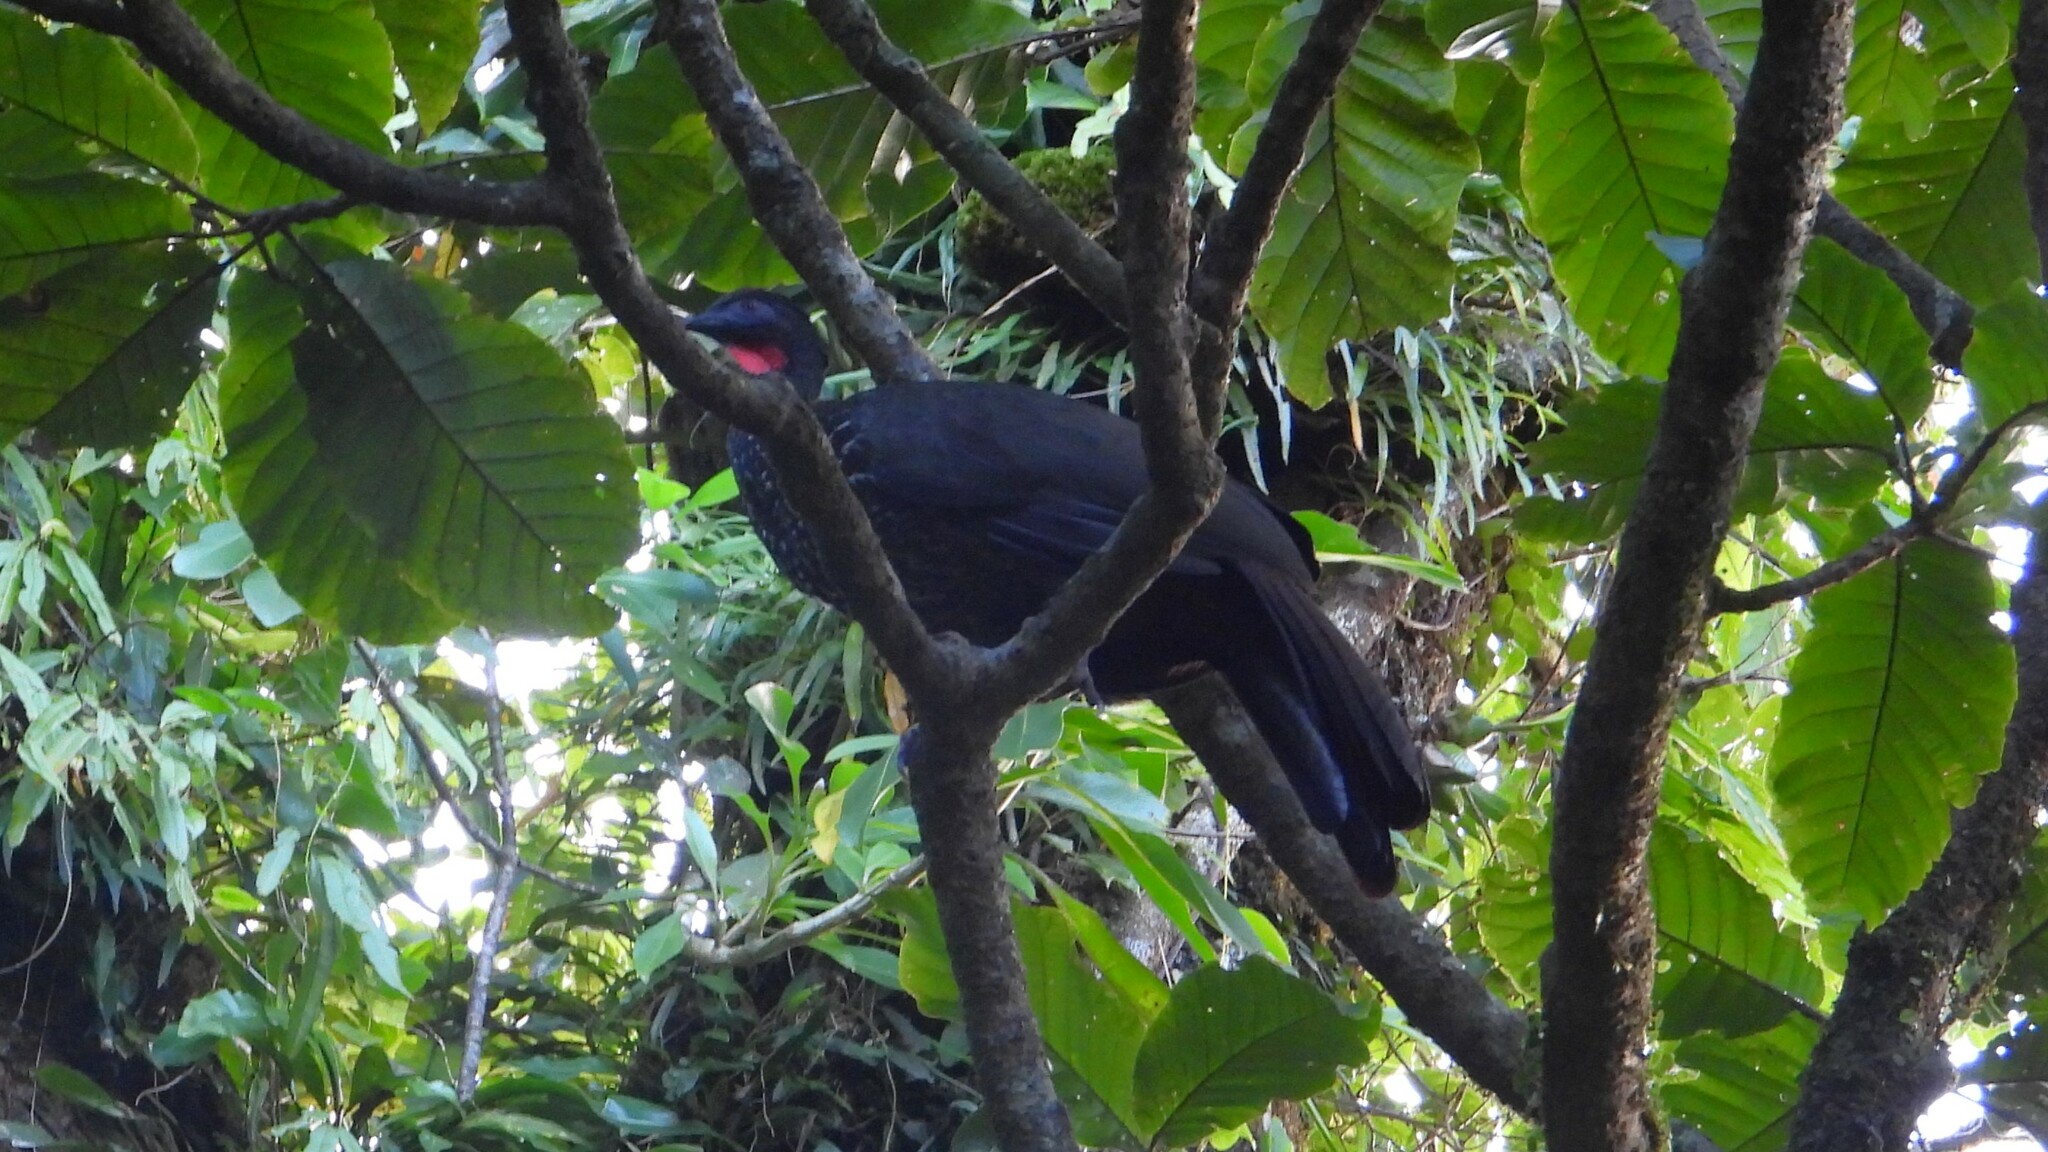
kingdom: Animalia
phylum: Chordata
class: Aves
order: Galliformes
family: Cracidae
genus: Penelope
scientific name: Penelope purpurascens
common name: Crested guan
